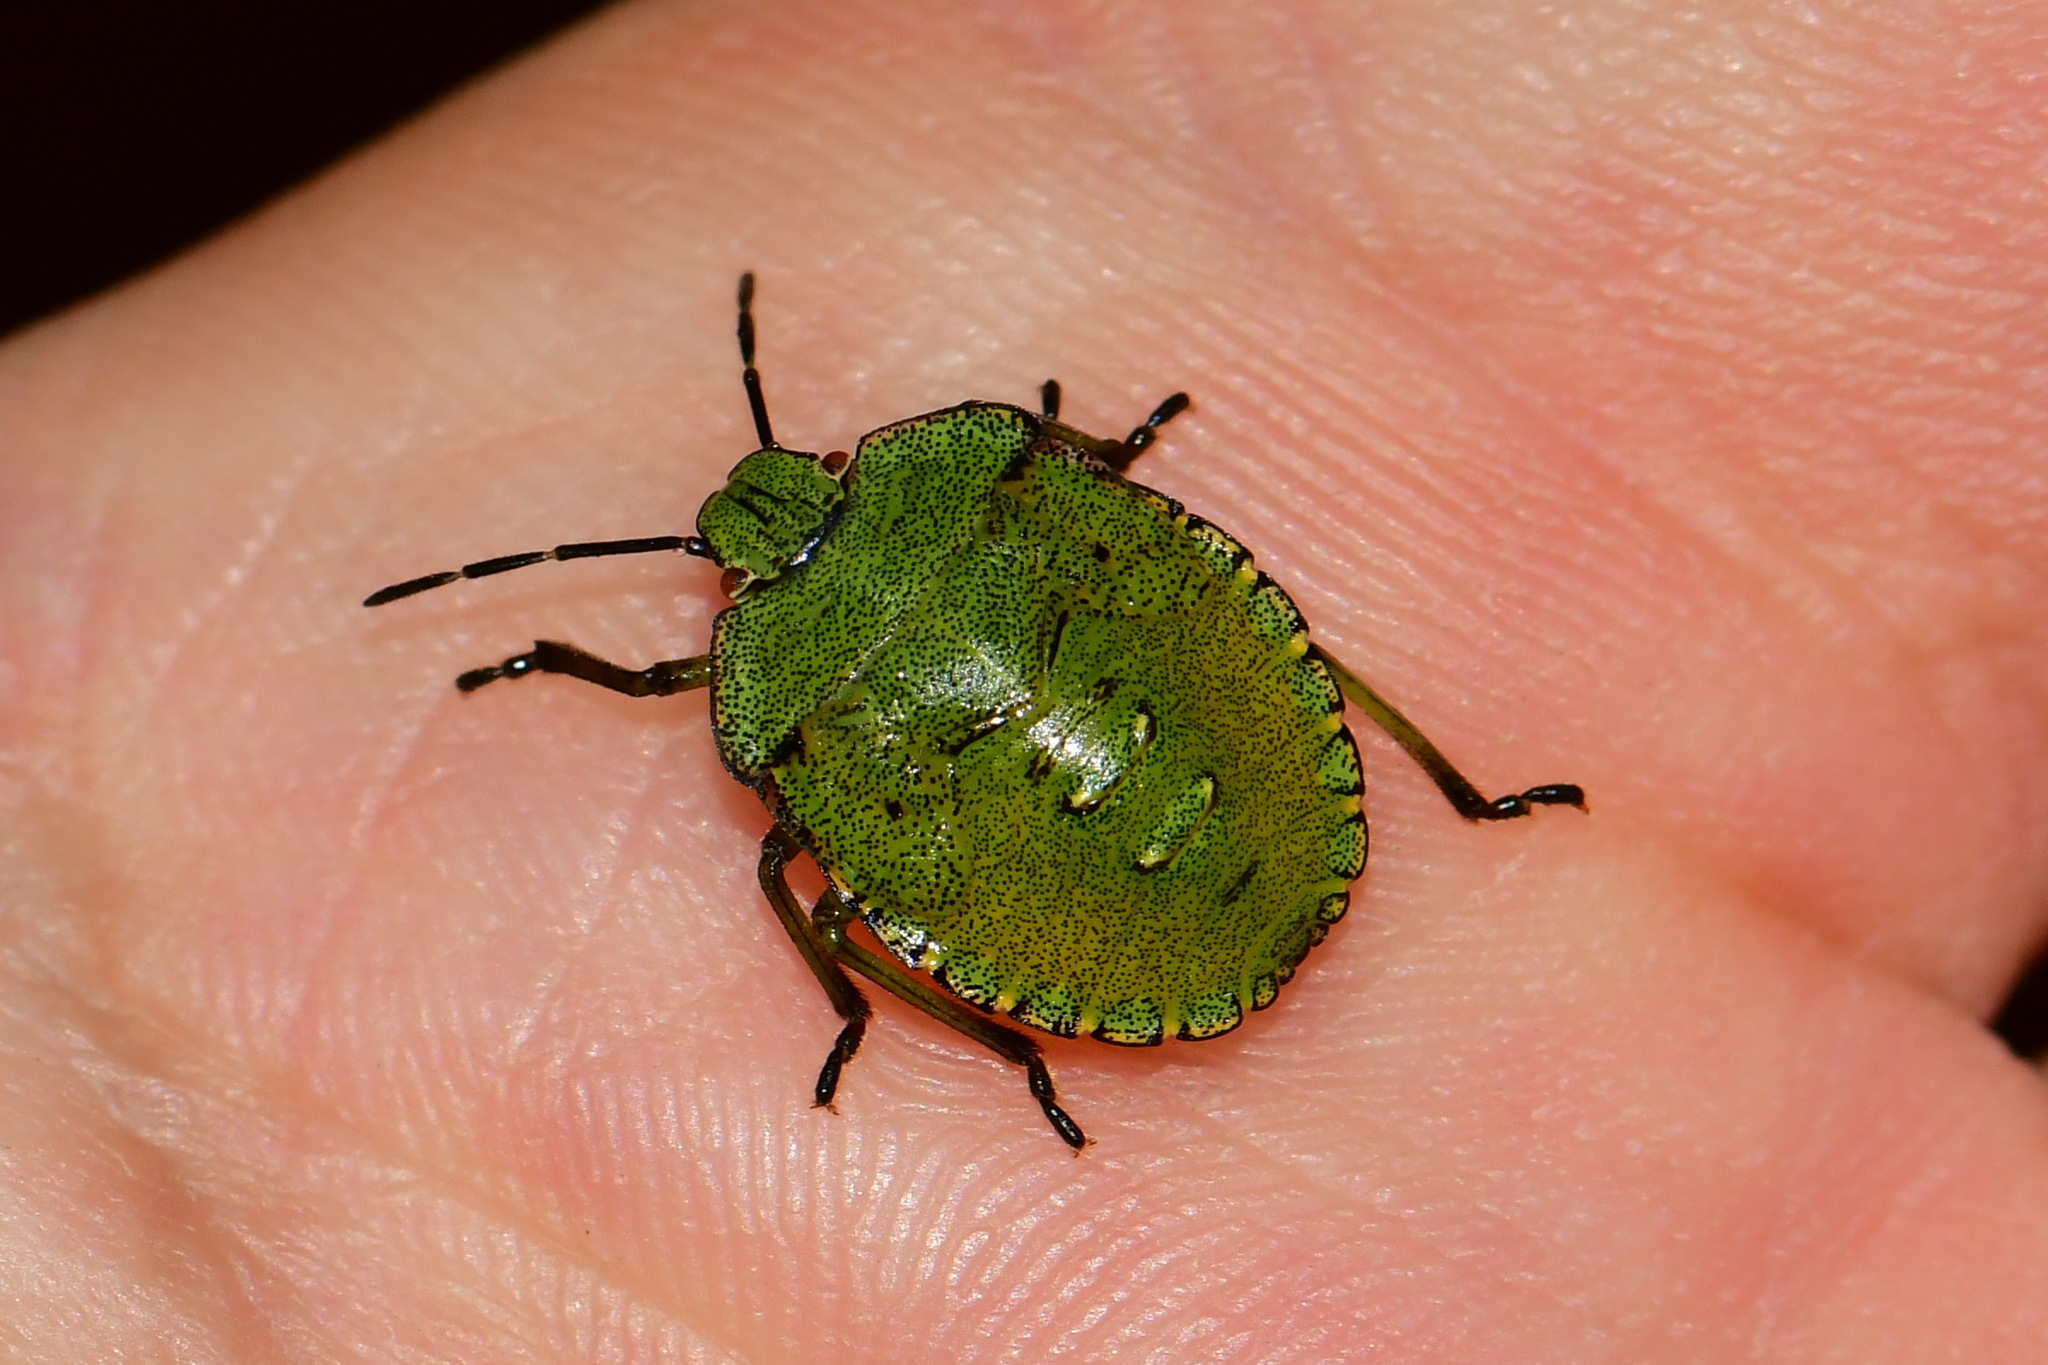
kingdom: Animalia
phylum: Arthropoda
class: Insecta
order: Hemiptera
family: Pentatomidae
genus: Palomena
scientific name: Palomena prasina
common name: Green shieldbug
